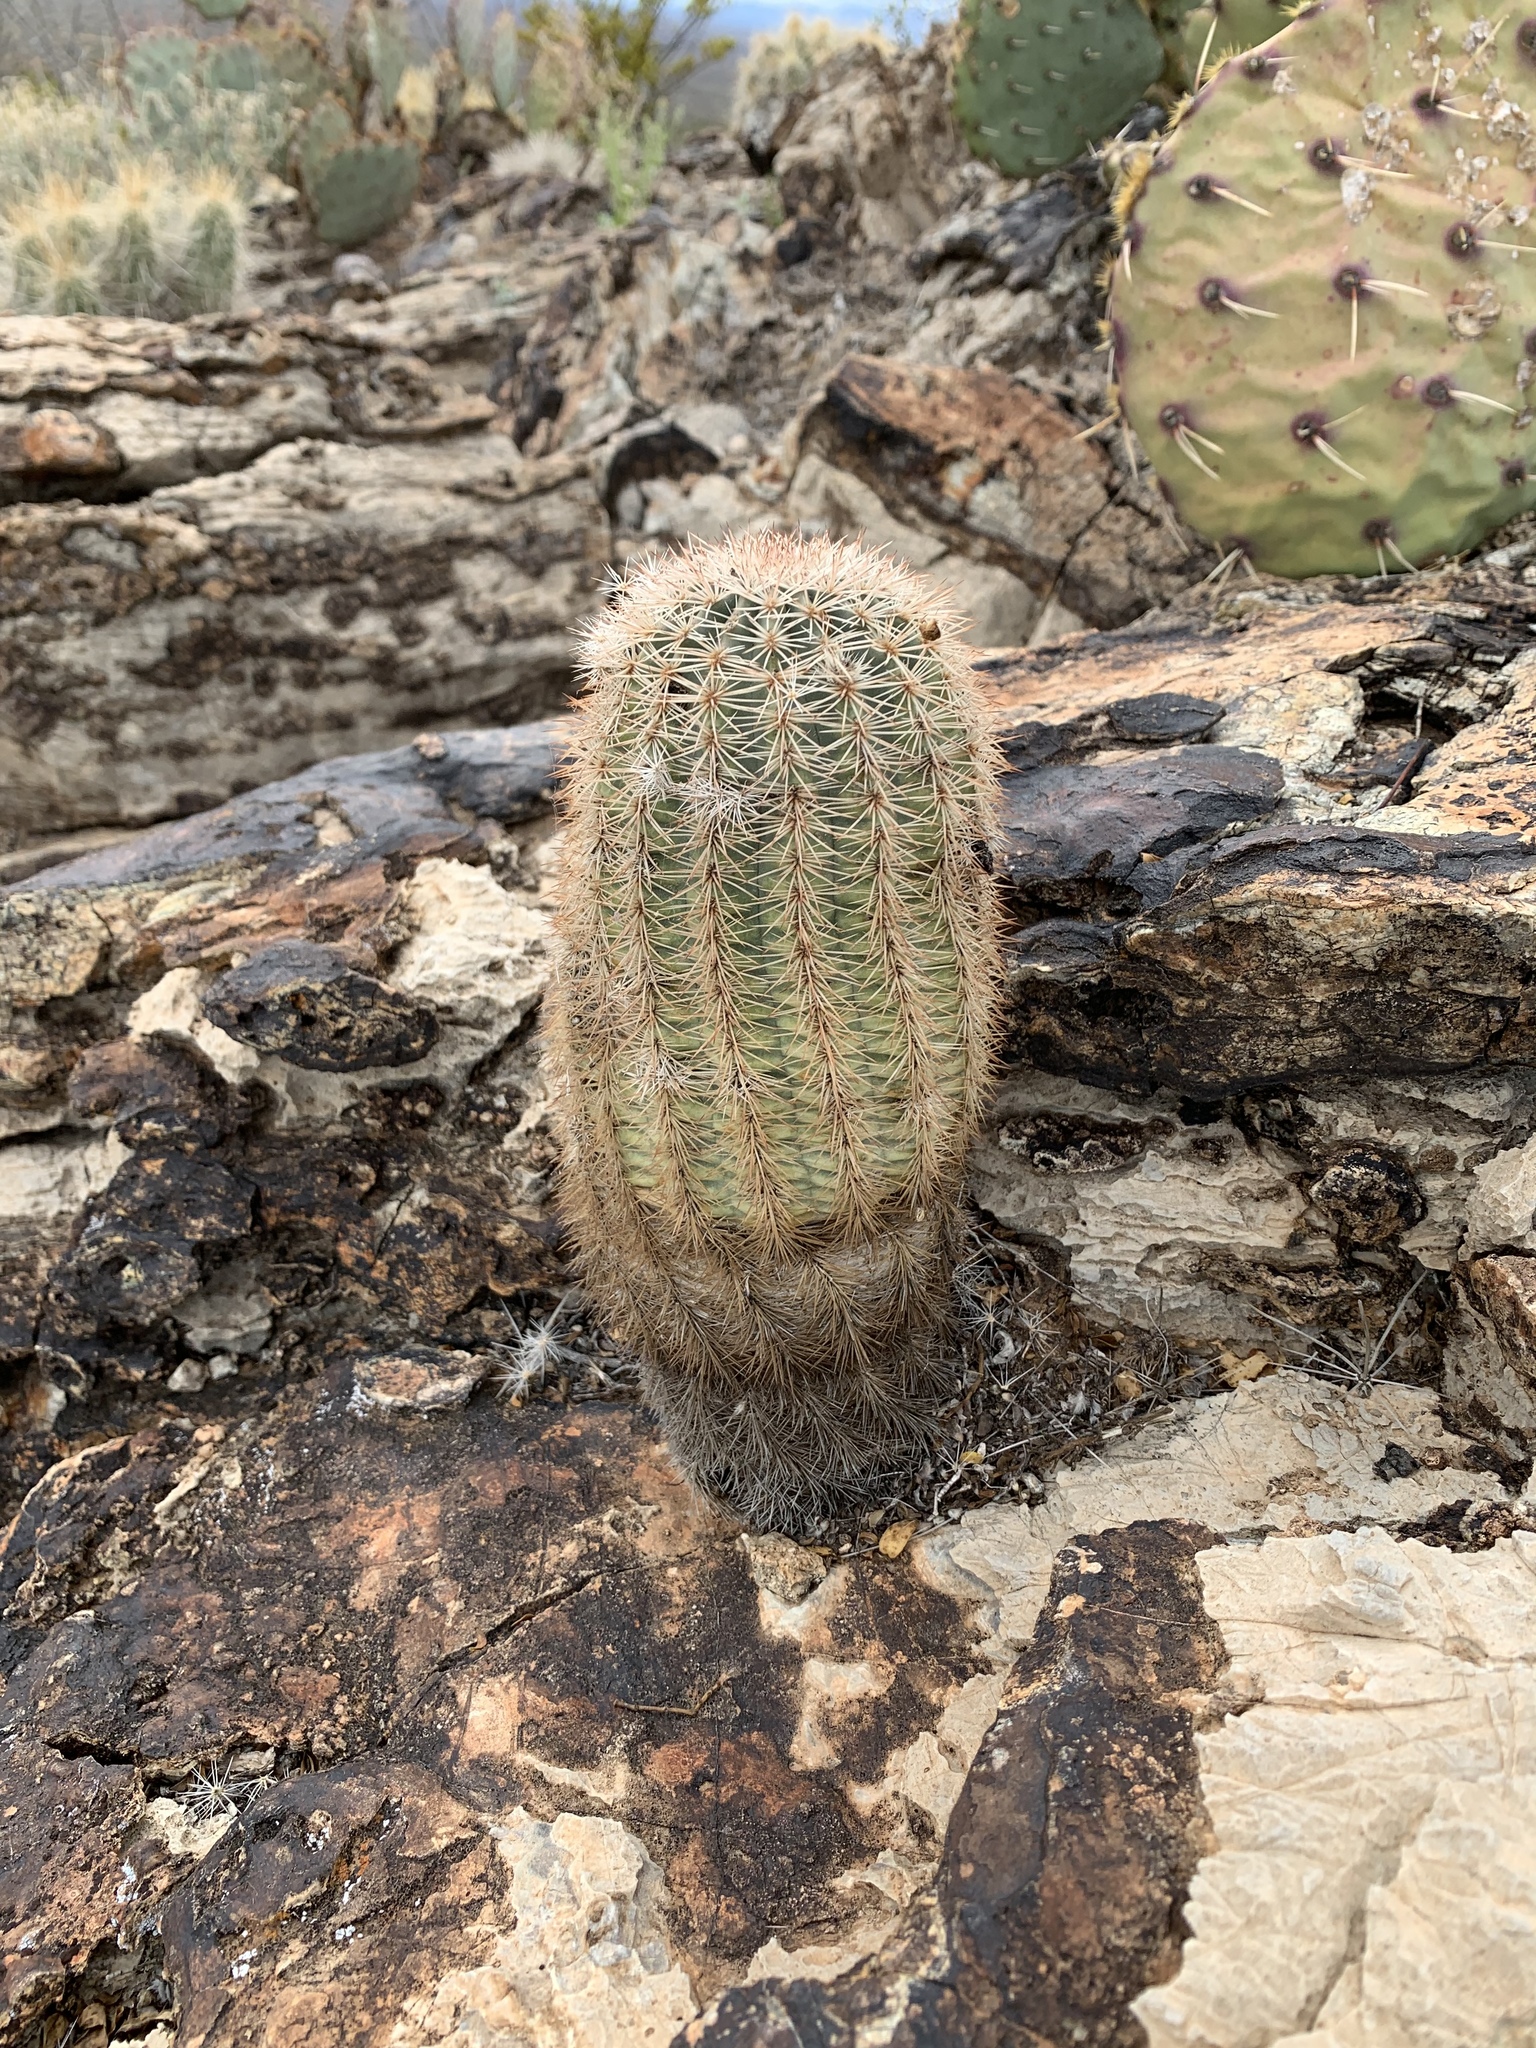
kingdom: Plantae
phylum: Tracheophyta
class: Magnoliopsida
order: Caryophyllales
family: Cactaceae
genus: Echinocereus
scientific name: Echinocereus dasyacanthus
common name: Spiny hedgehog cactus
